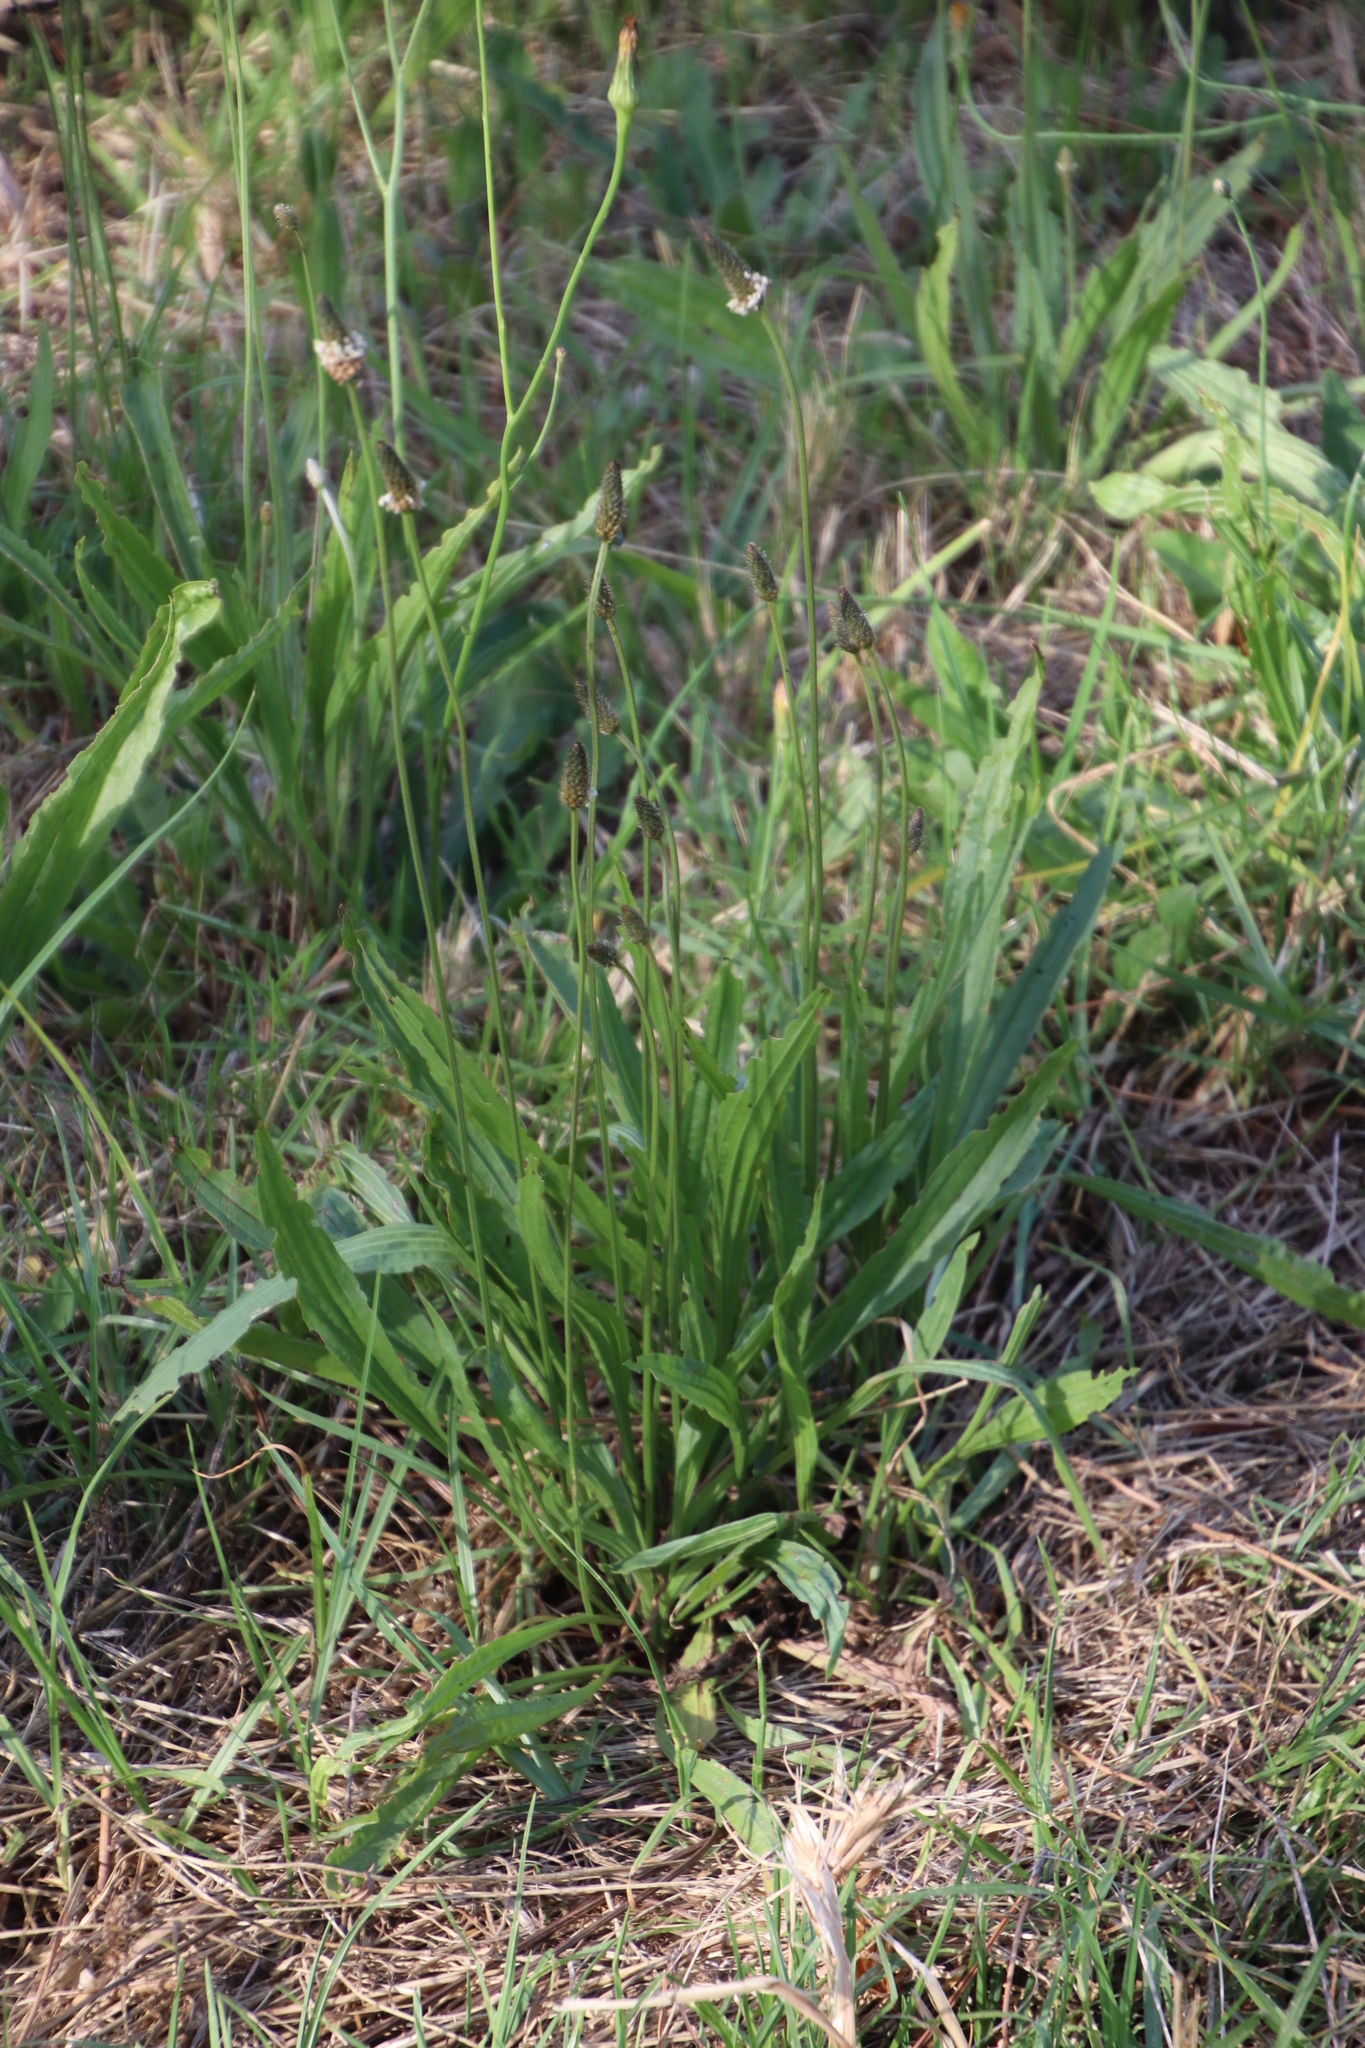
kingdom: Plantae
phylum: Tracheophyta
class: Magnoliopsida
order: Lamiales
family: Plantaginaceae
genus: Plantago
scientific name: Plantago lanceolata
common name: Ribwort plantain
